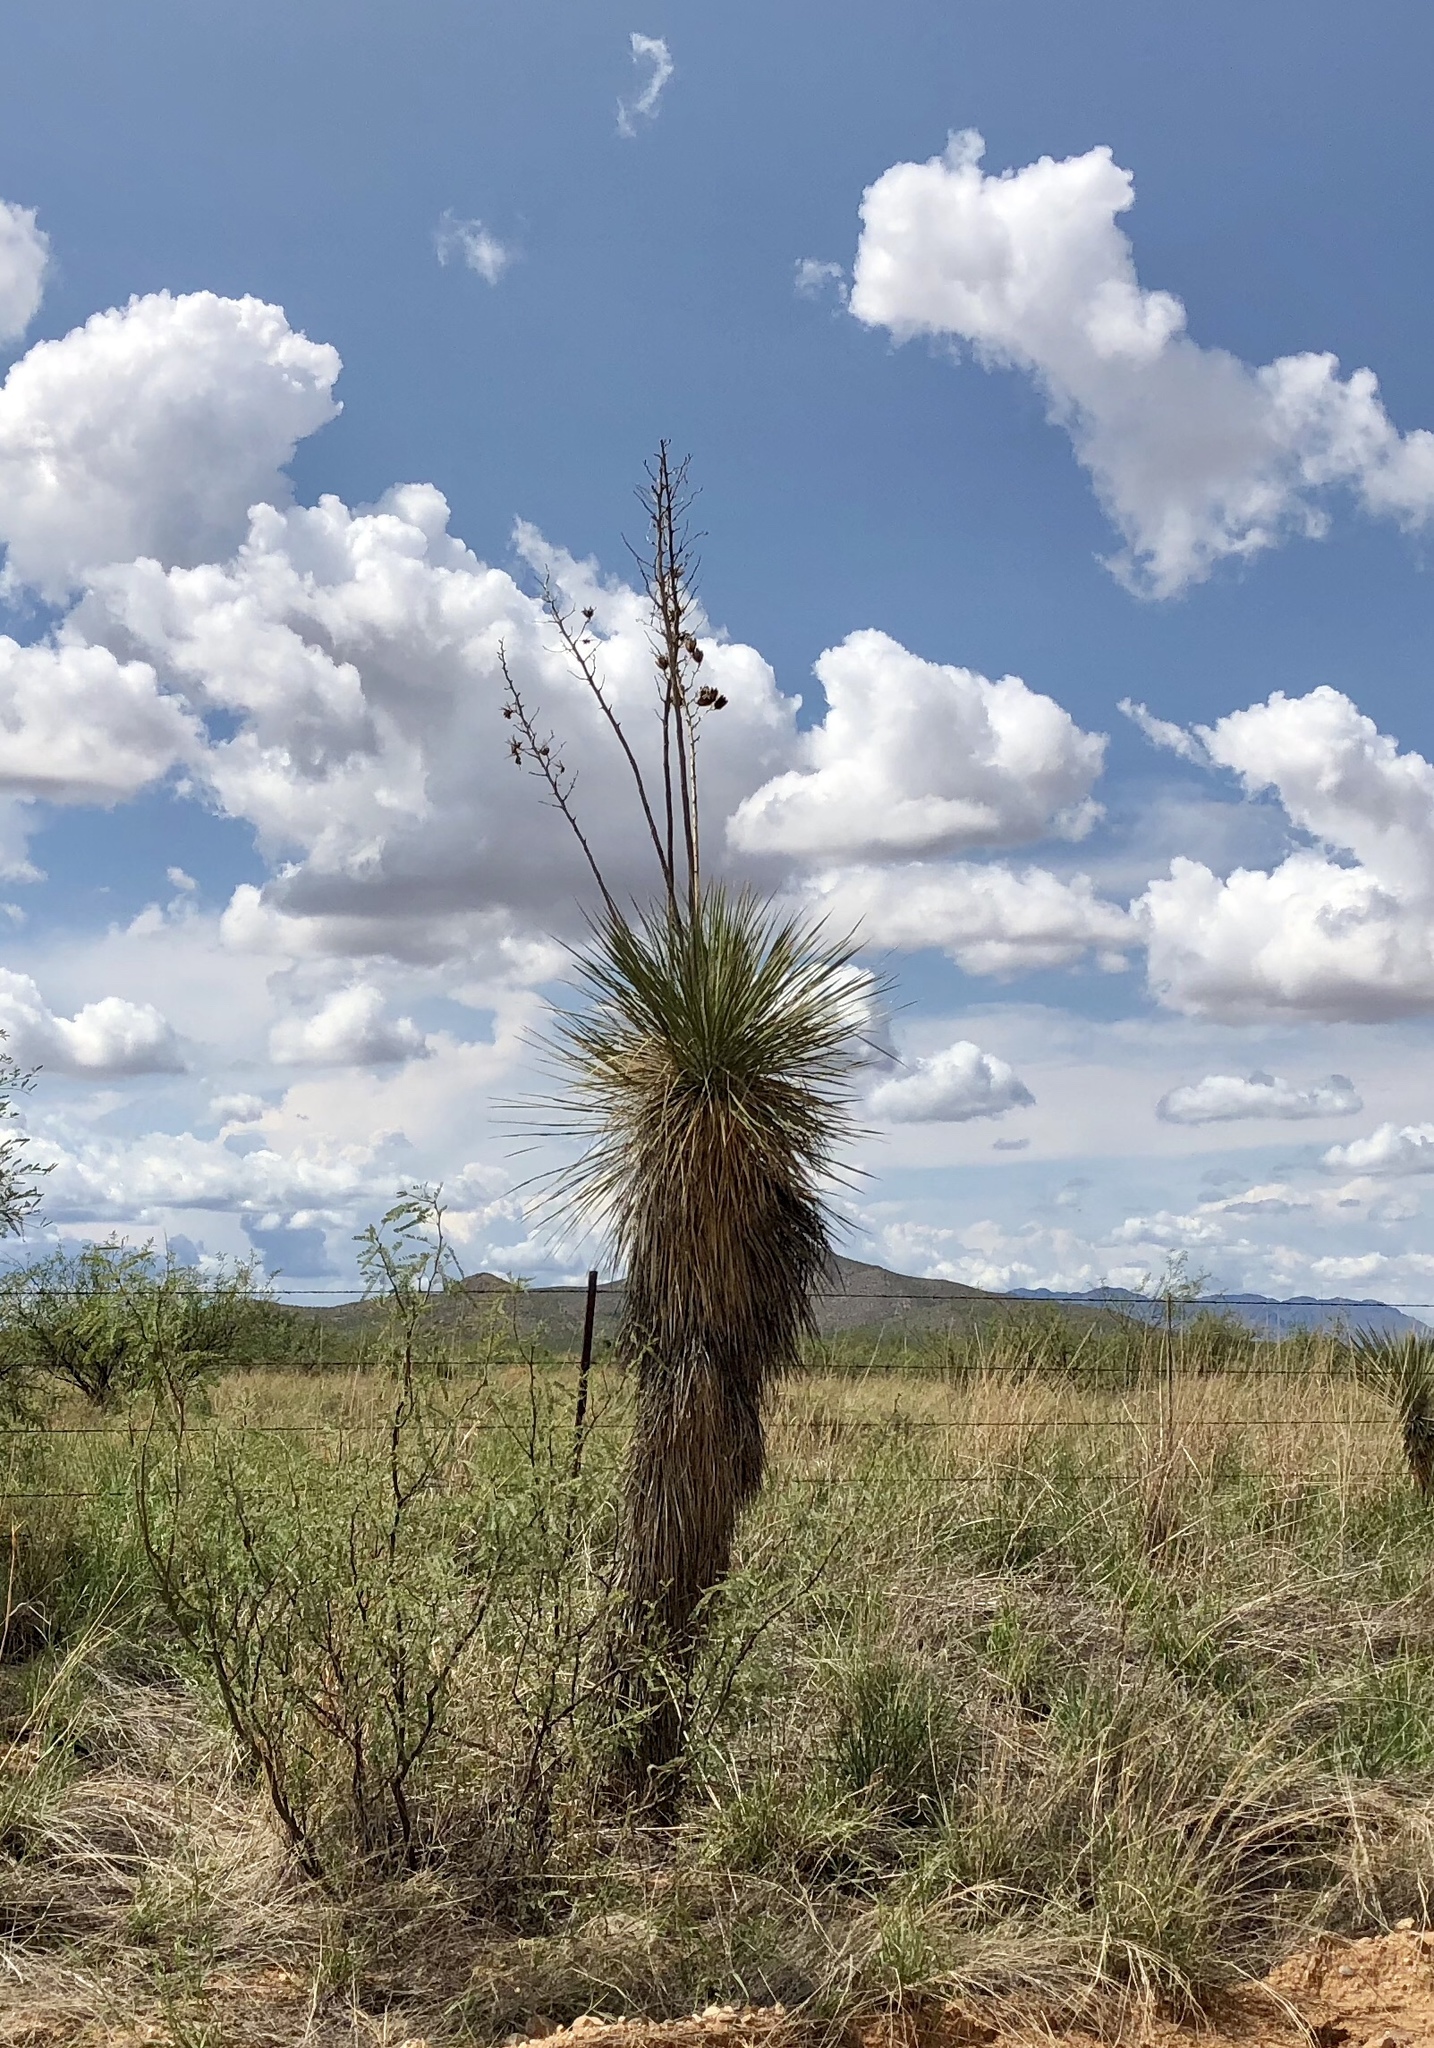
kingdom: Plantae
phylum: Tracheophyta
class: Liliopsida
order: Asparagales
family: Asparagaceae
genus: Yucca
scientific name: Yucca elata
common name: Palmella
